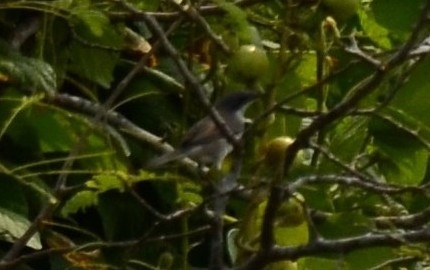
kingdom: Animalia
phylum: Chordata
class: Aves
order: Passeriformes
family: Sylviidae
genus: Sylvia
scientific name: Sylvia curruca
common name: Lesser whitethroat
